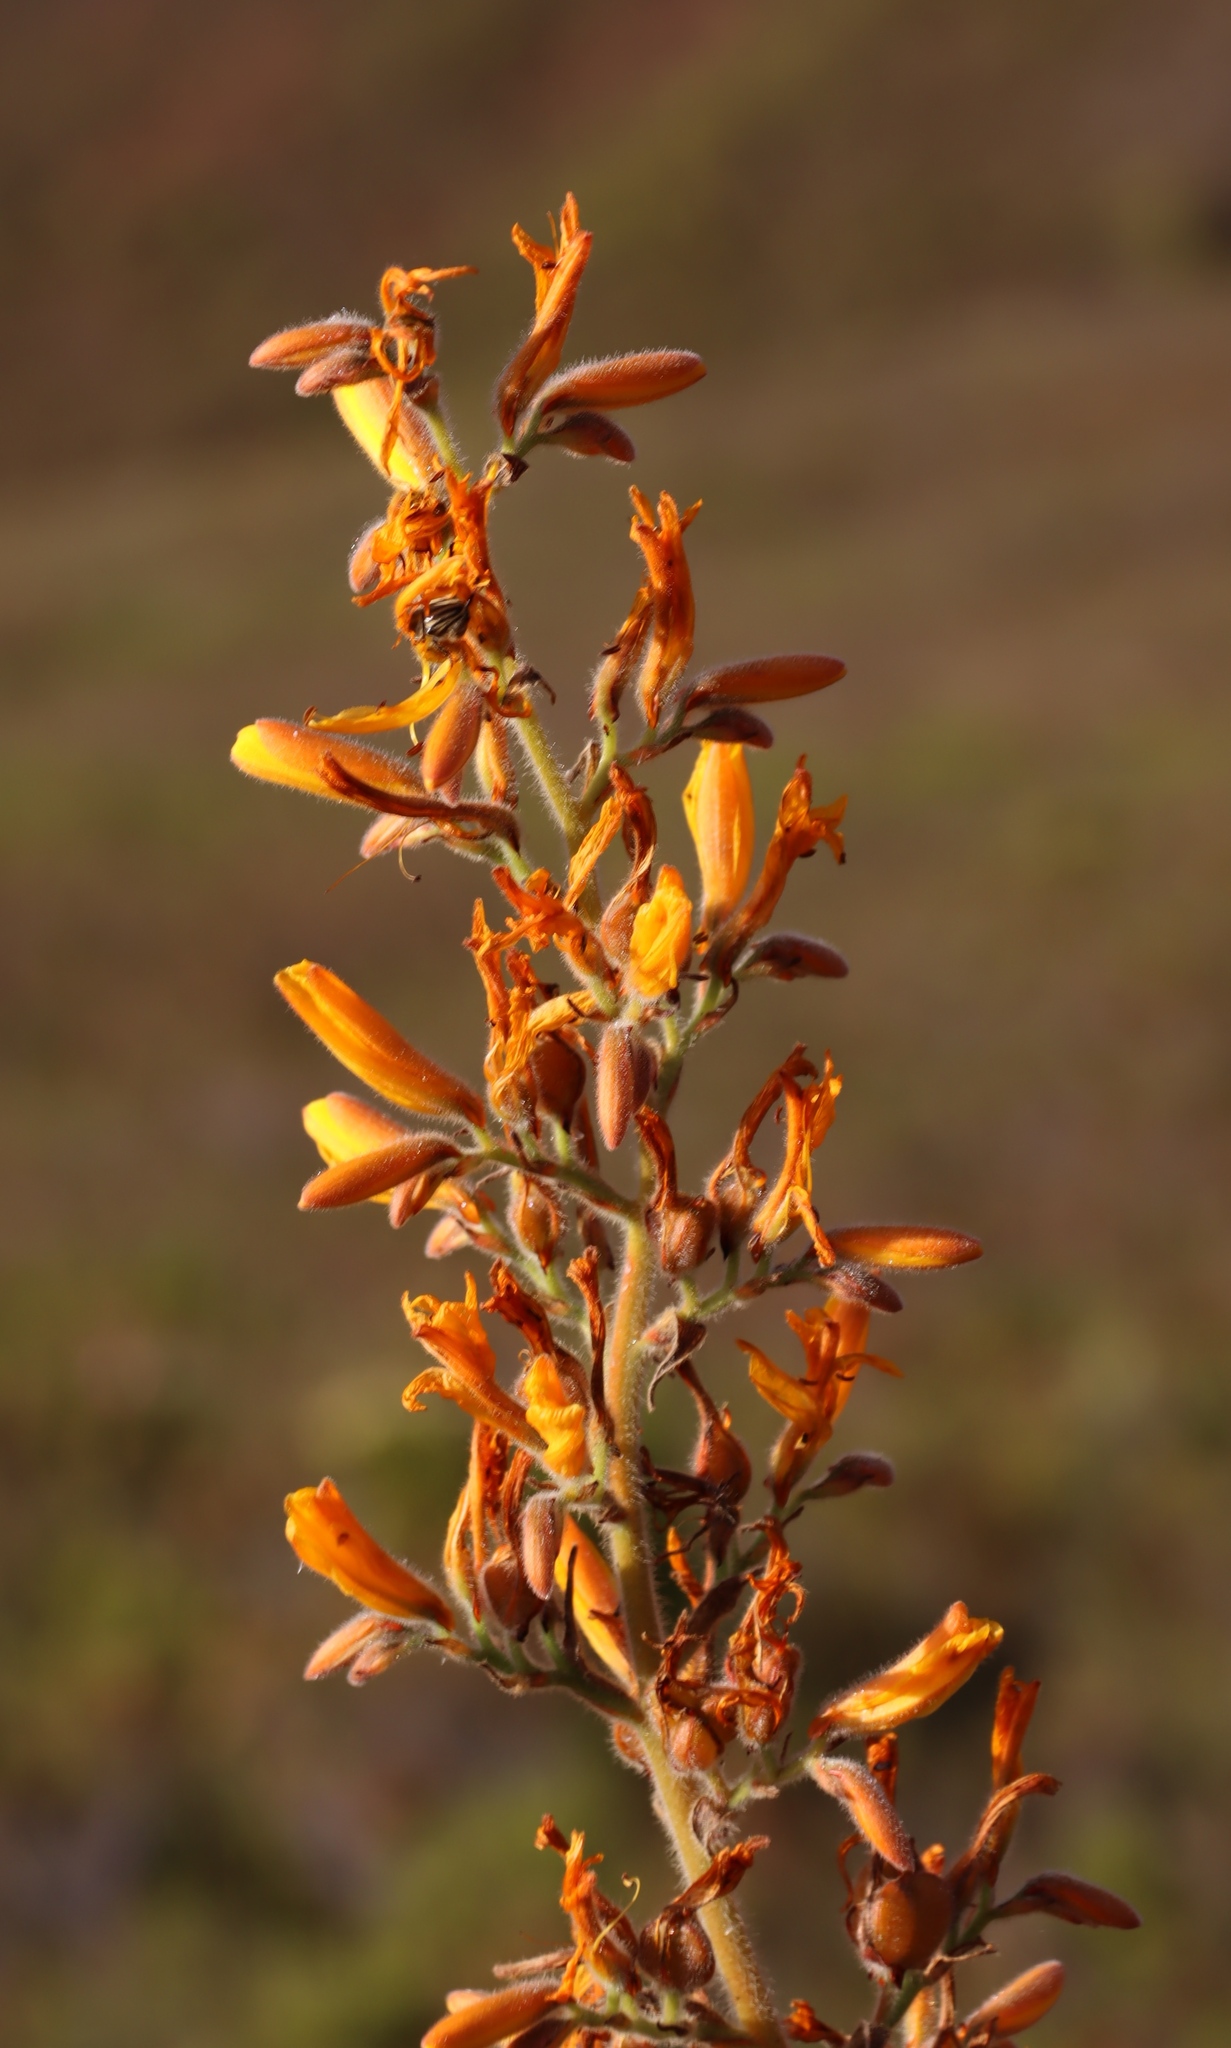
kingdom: Plantae
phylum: Tracheophyta
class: Liliopsida
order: Commelinales
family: Haemodoraceae
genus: Wachendorfia
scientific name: Wachendorfia thyrsiflora
